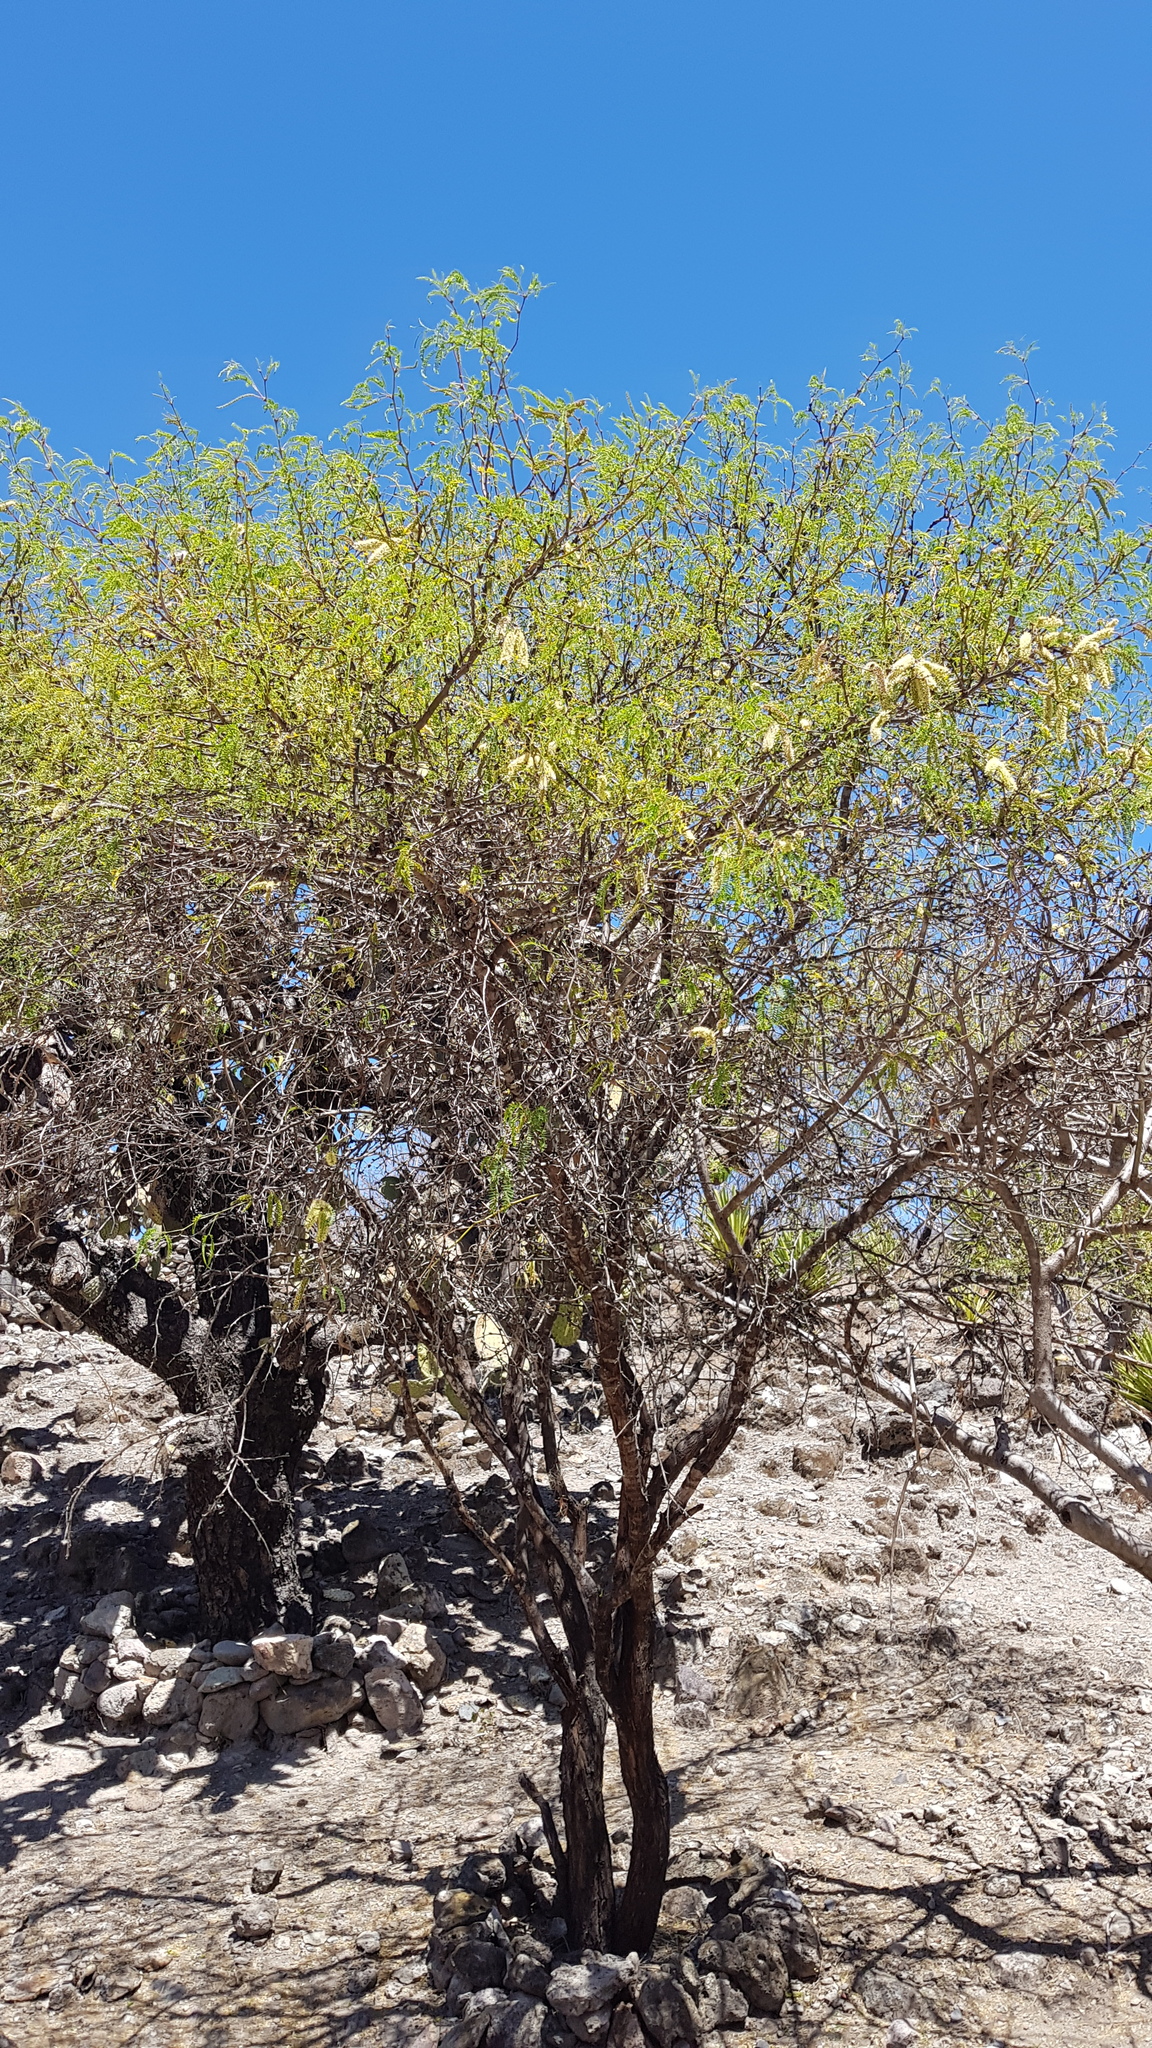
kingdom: Plantae
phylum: Tracheophyta
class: Magnoliopsida
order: Fabales
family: Fabaceae
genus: Prosopis
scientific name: Prosopis laevigata
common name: Smooth mesquite
